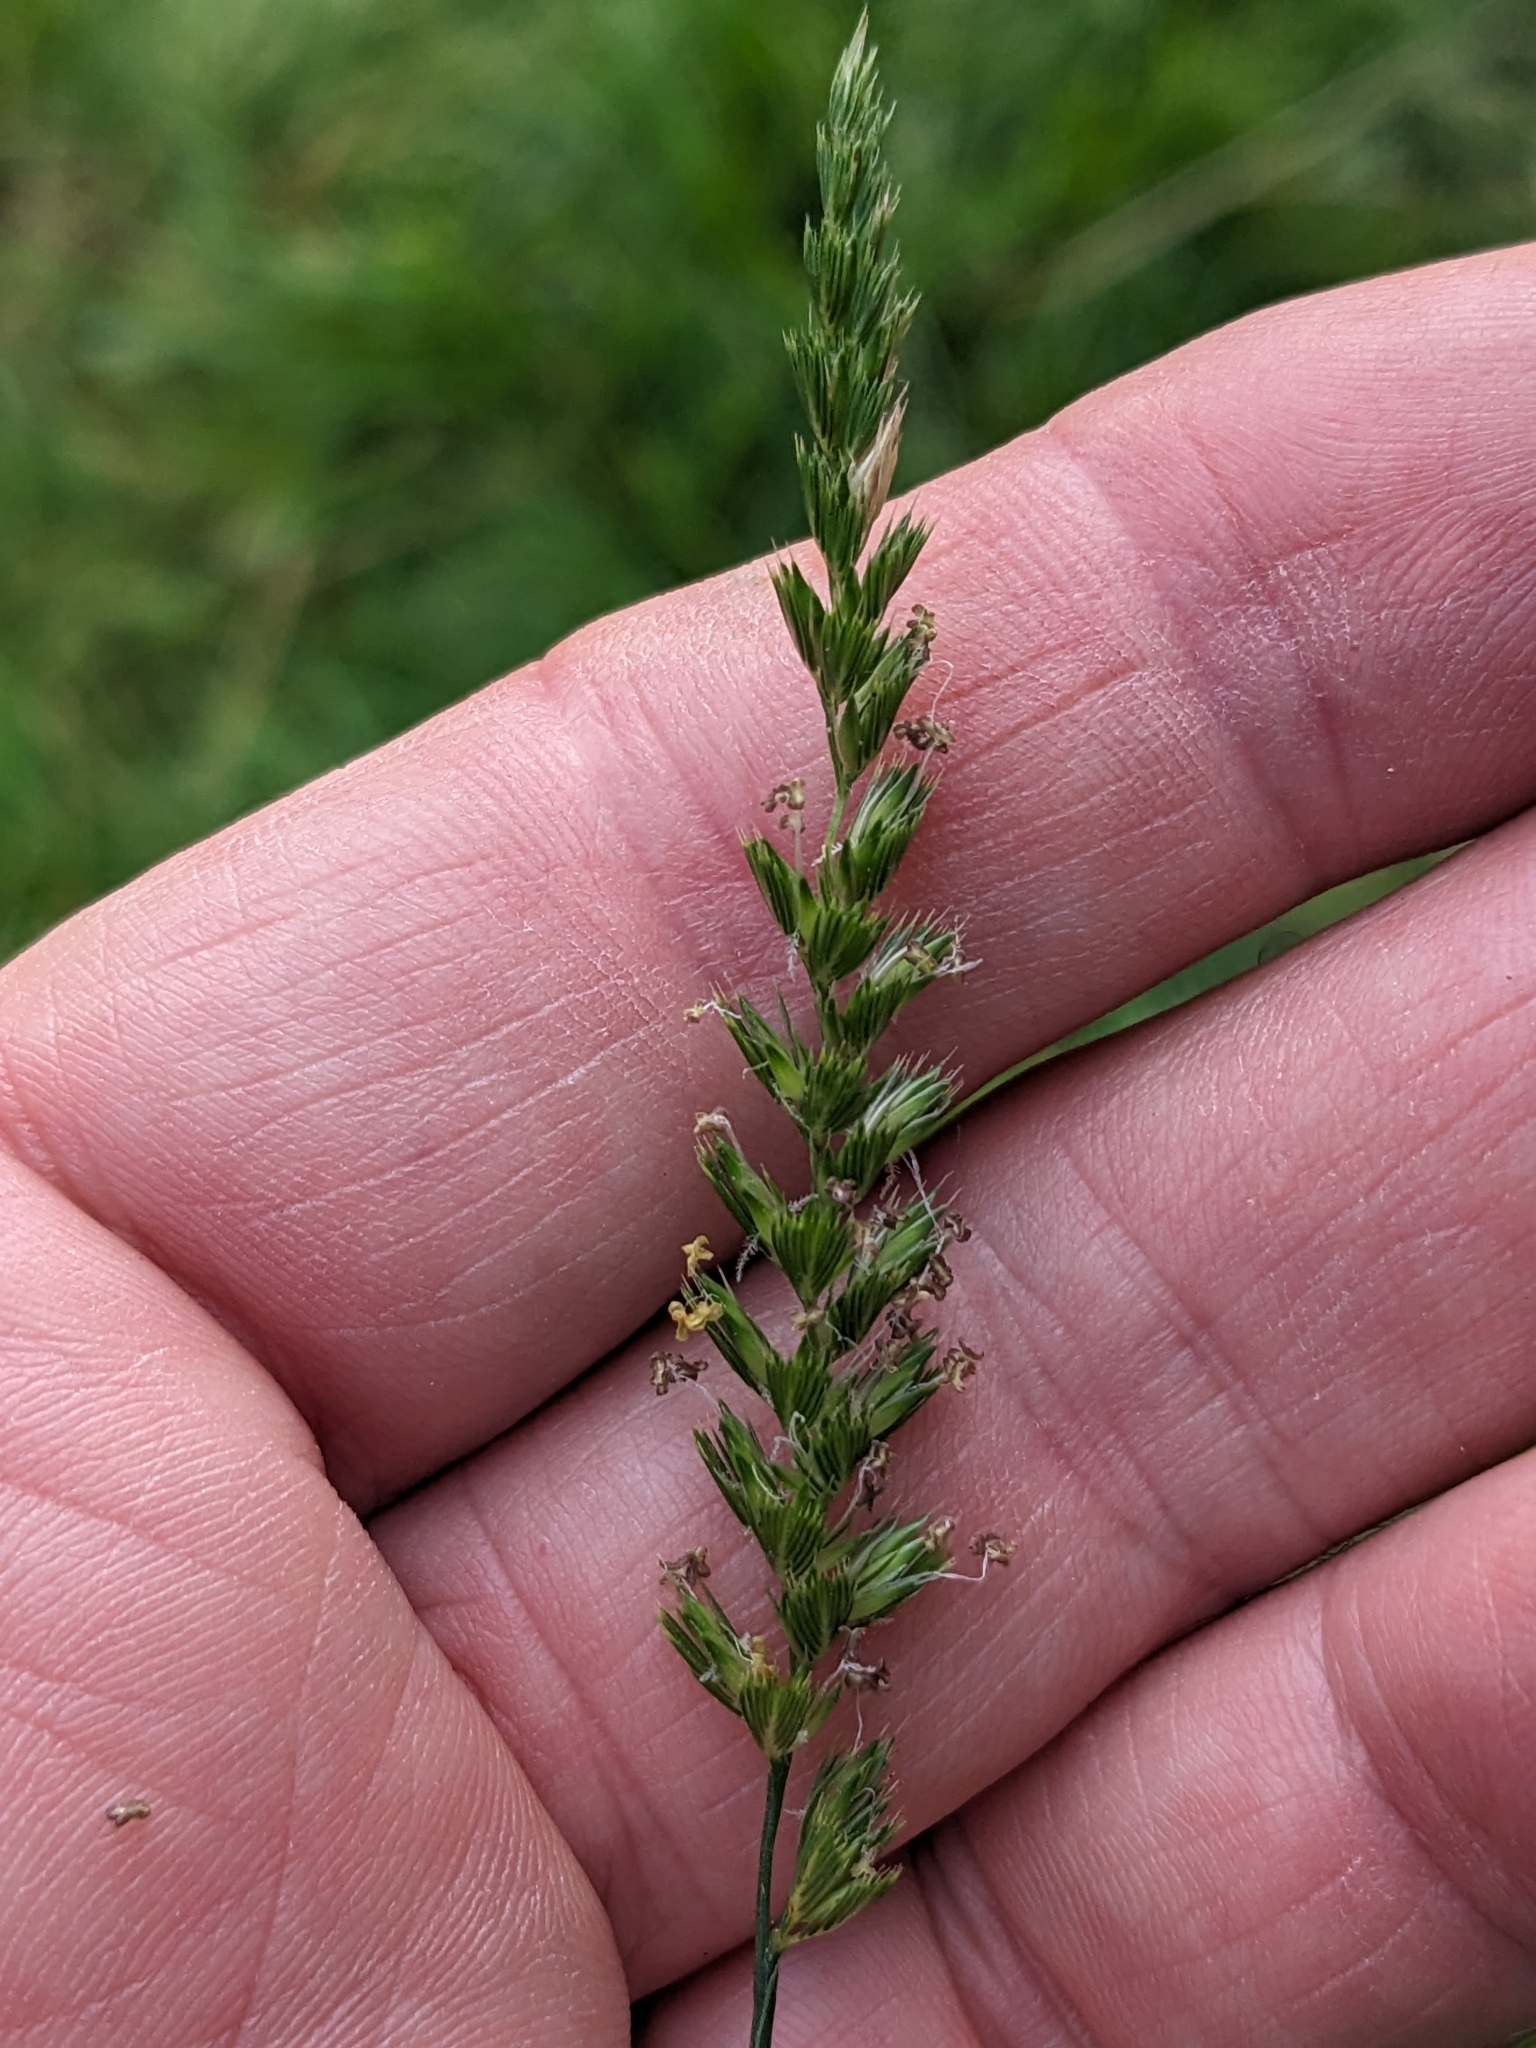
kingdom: Plantae
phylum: Tracheophyta
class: Liliopsida
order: Poales
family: Poaceae
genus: Cynosurus
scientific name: Cynosurus cristatus
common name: Crested dog's-tail
